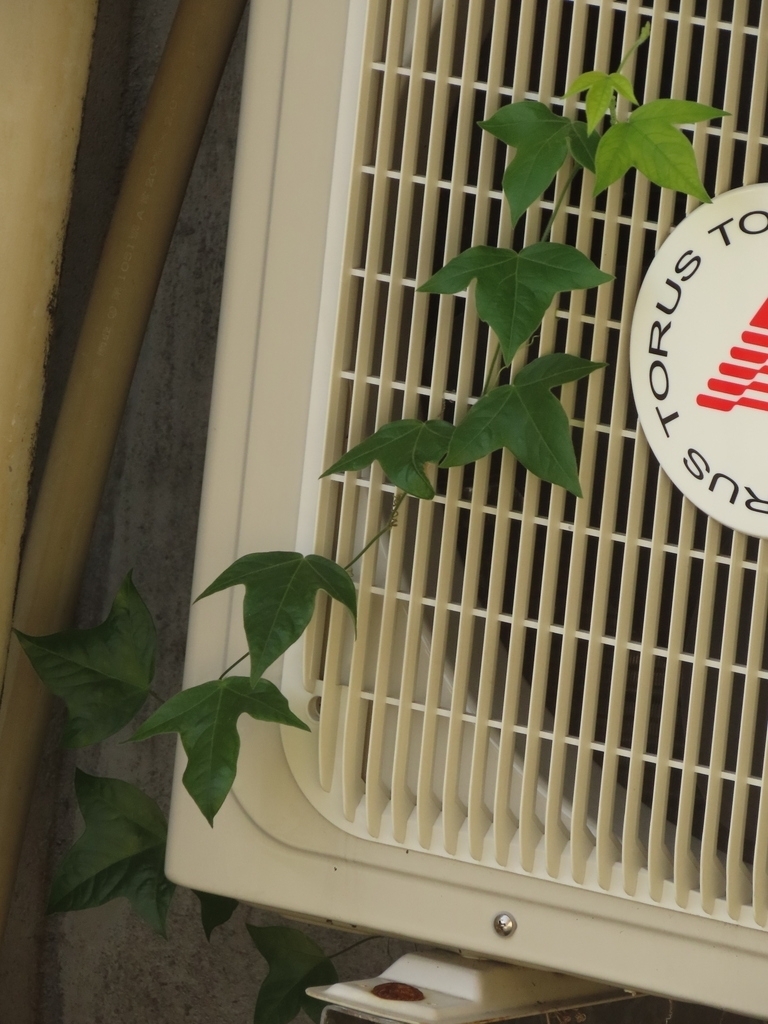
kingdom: Plantae
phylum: Tracheophyta
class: Magnoliopsida
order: Malpighiales
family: Passifloraceae
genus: Passiflora
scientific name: Passiflora suberosa
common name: Wild passionfruit
